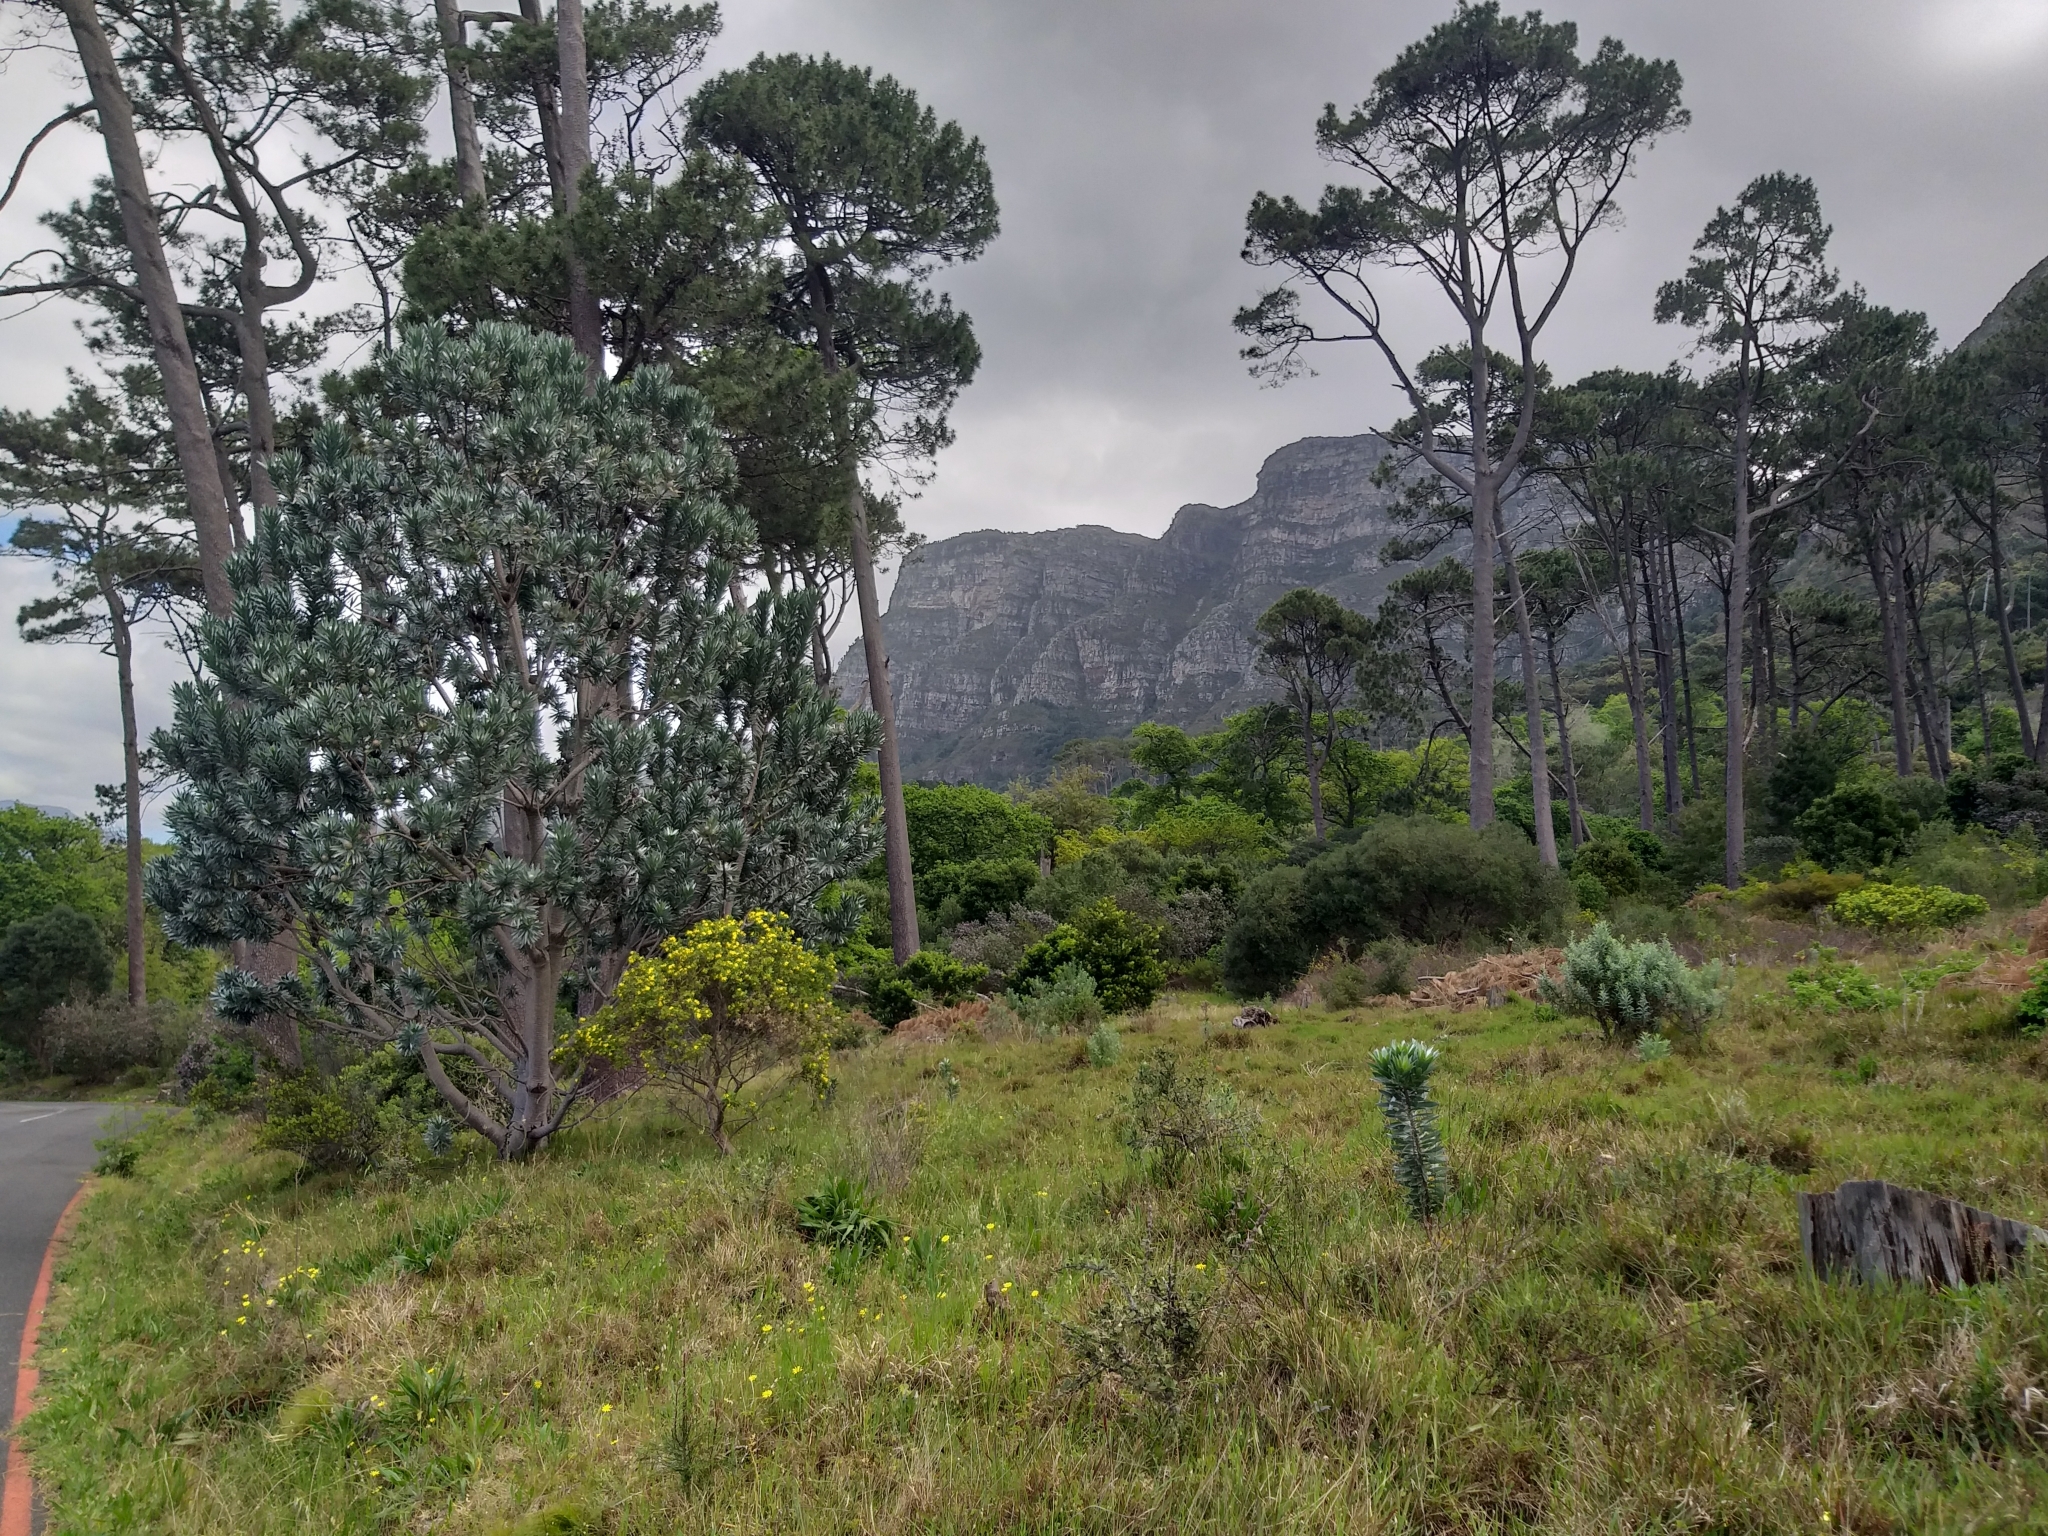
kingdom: Plantae
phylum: Tracheophyta
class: Magnoliopsida
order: Proteales
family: Proteaceae
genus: Leucadendron
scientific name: Leucadendron argenteum
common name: Cape silver tree
